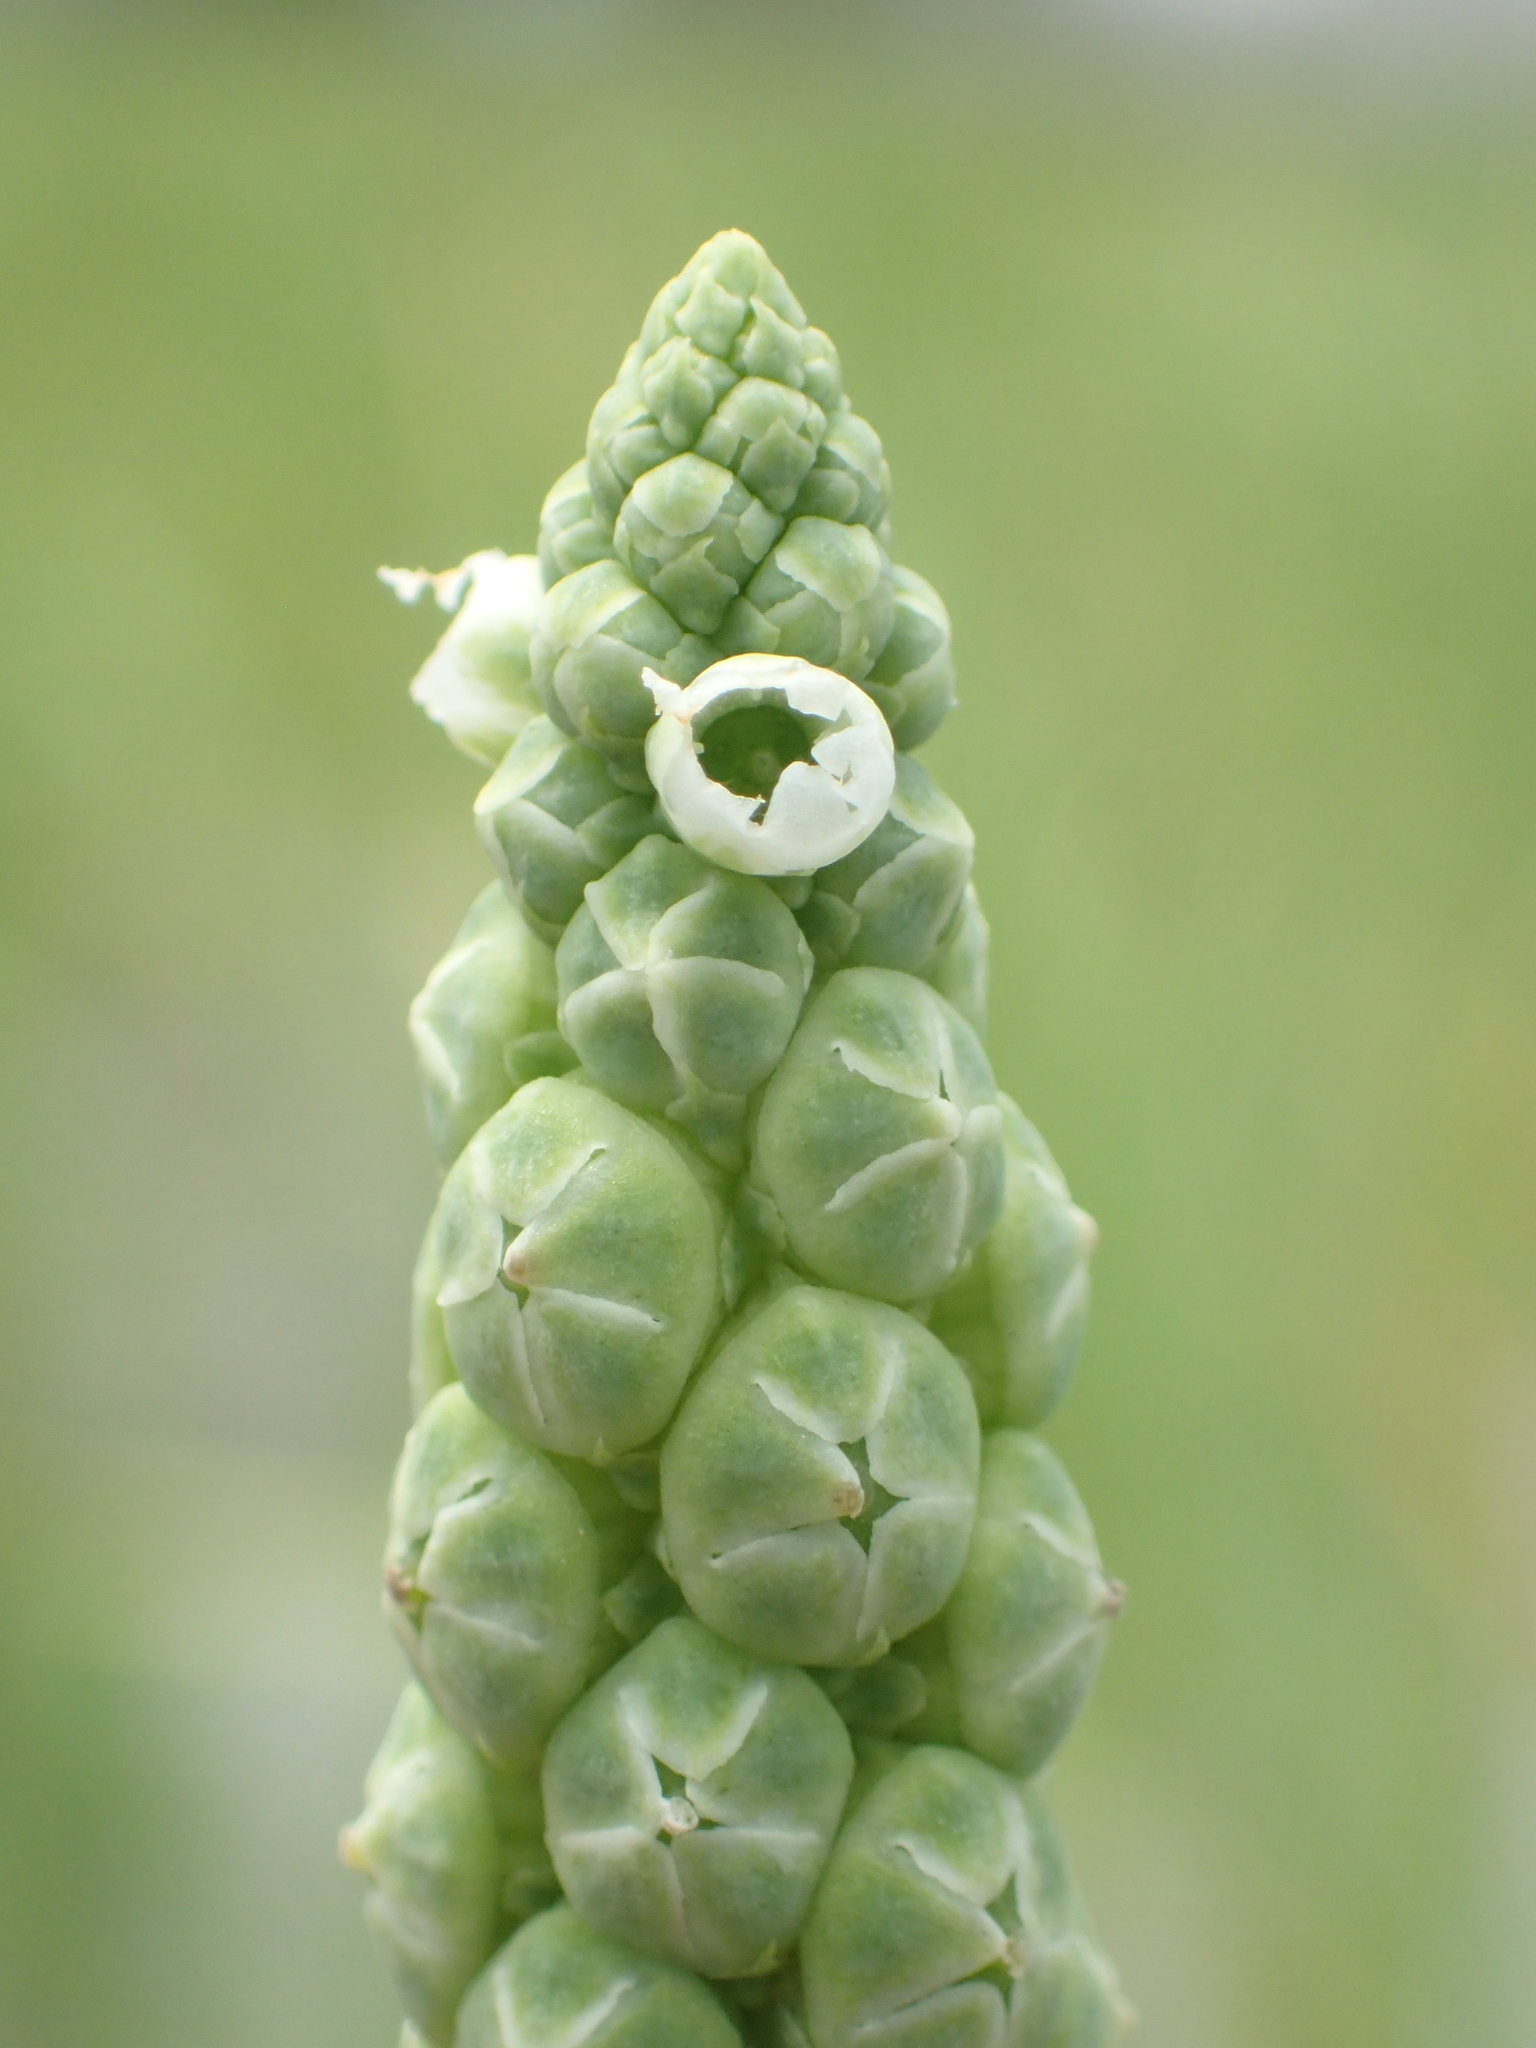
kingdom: Plantae
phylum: Tracheophyta
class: Magnoliopsida
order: Solanales
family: Sphenocleaceae
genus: Sphenoclea
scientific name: Sphenoclea zeylanica
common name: Chickenspike
